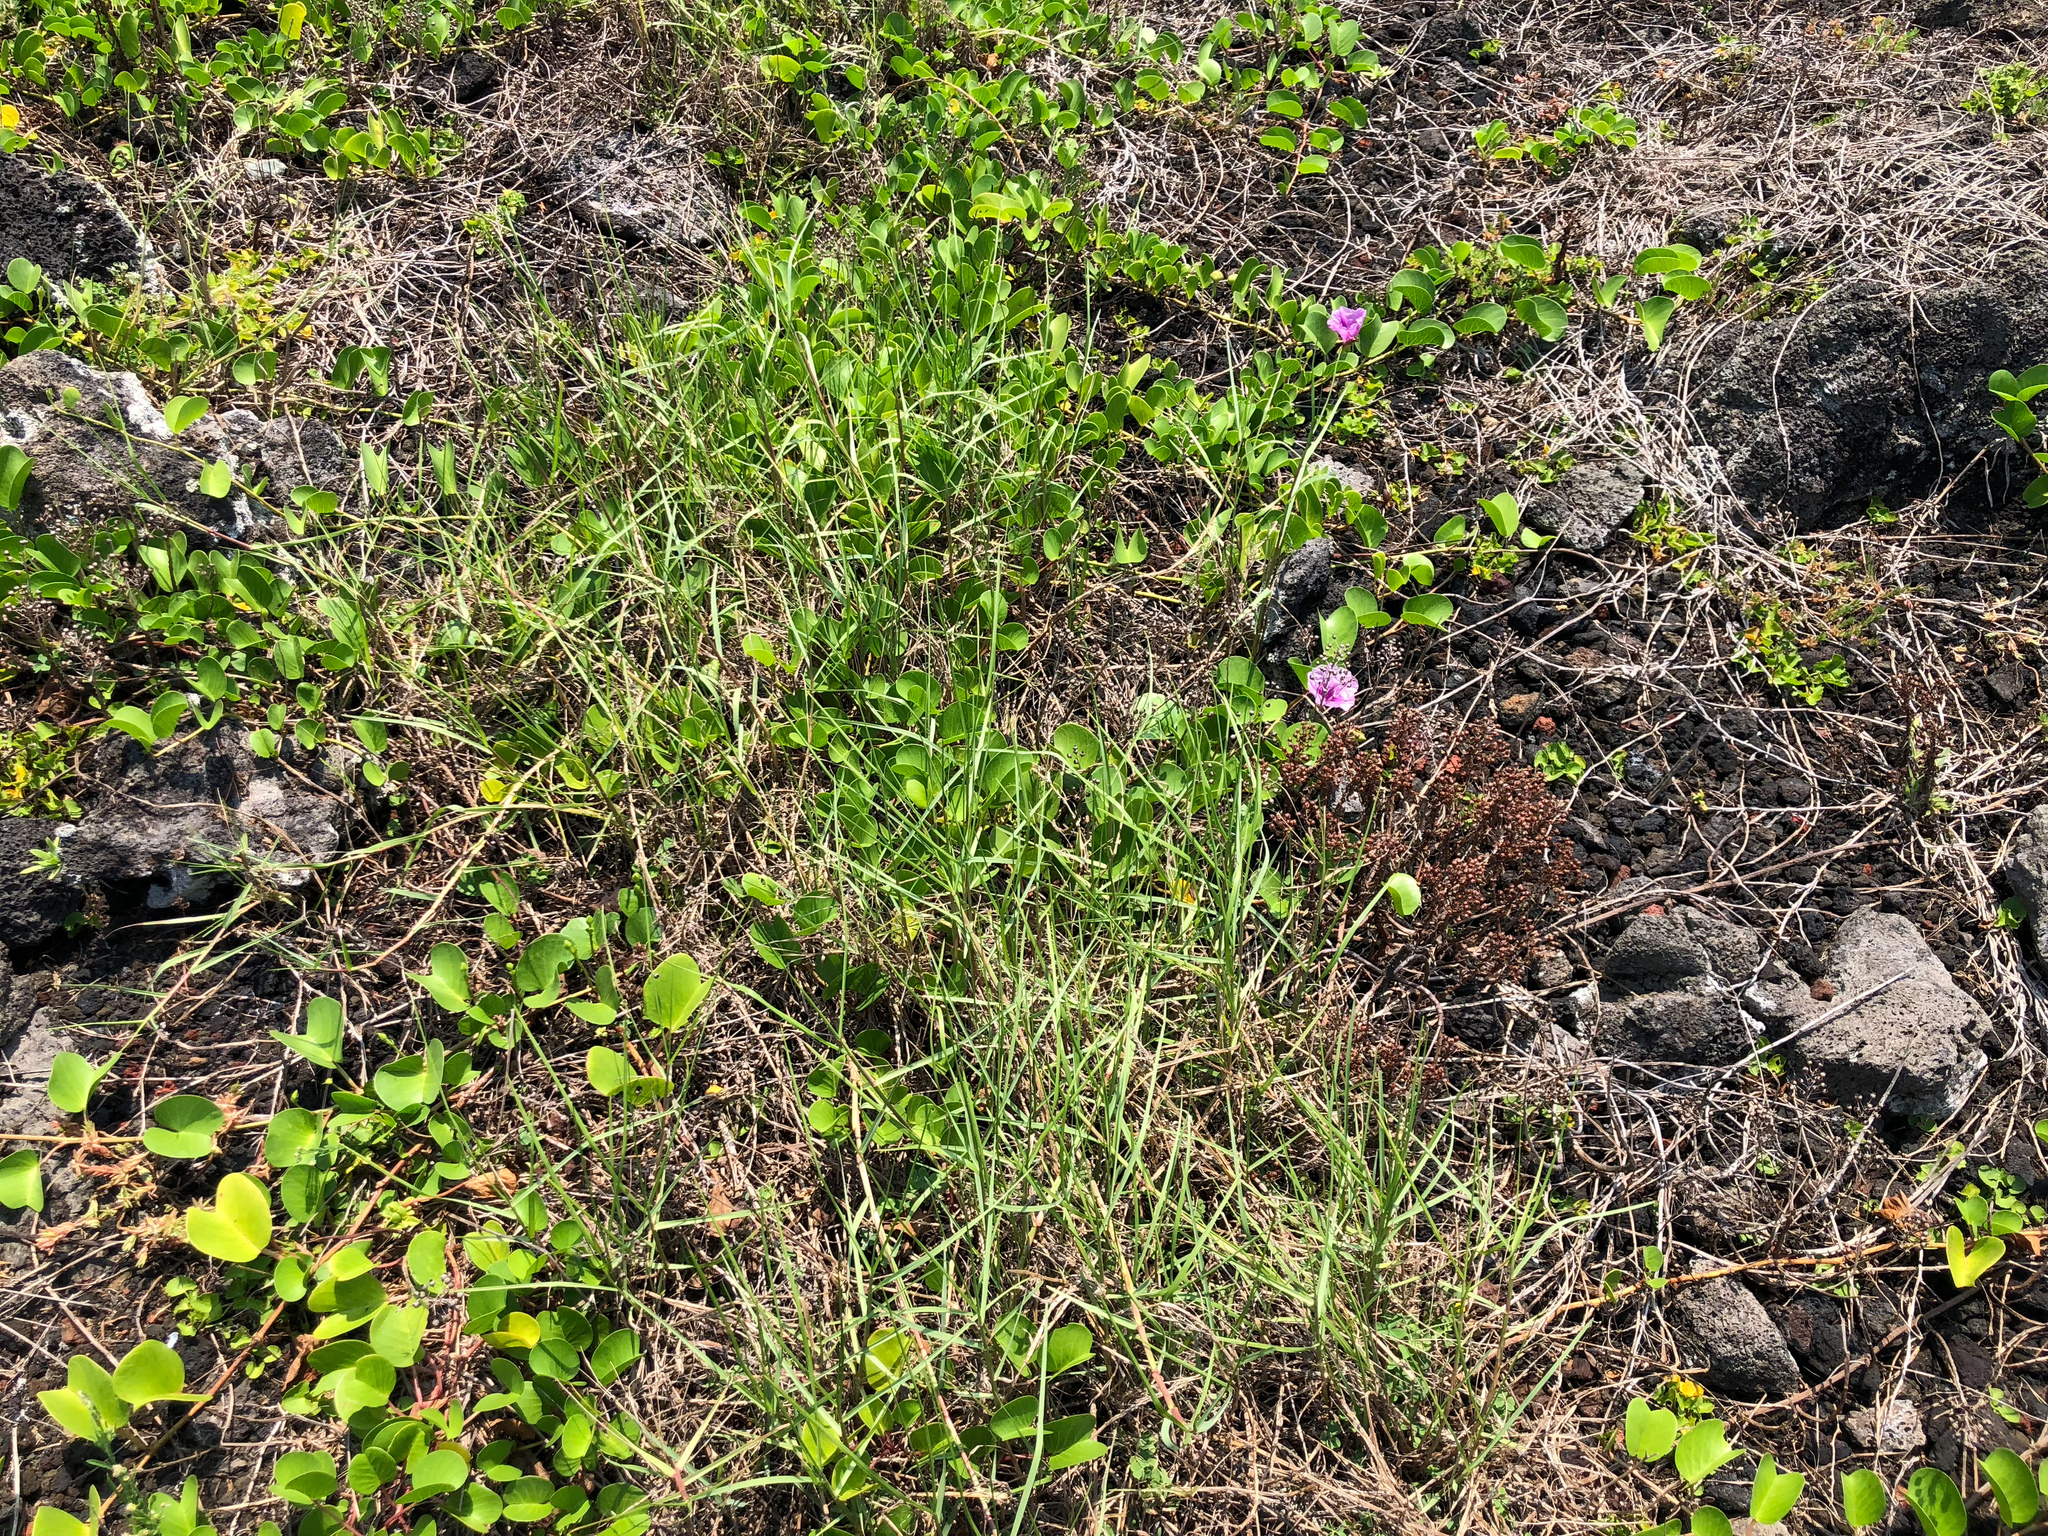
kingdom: Plantae
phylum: Tracheophyta
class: Liliopsida
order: Poales
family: Poaceae
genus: Paspalum
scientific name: Paspalum vaginatum
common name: Seashore paspalum
